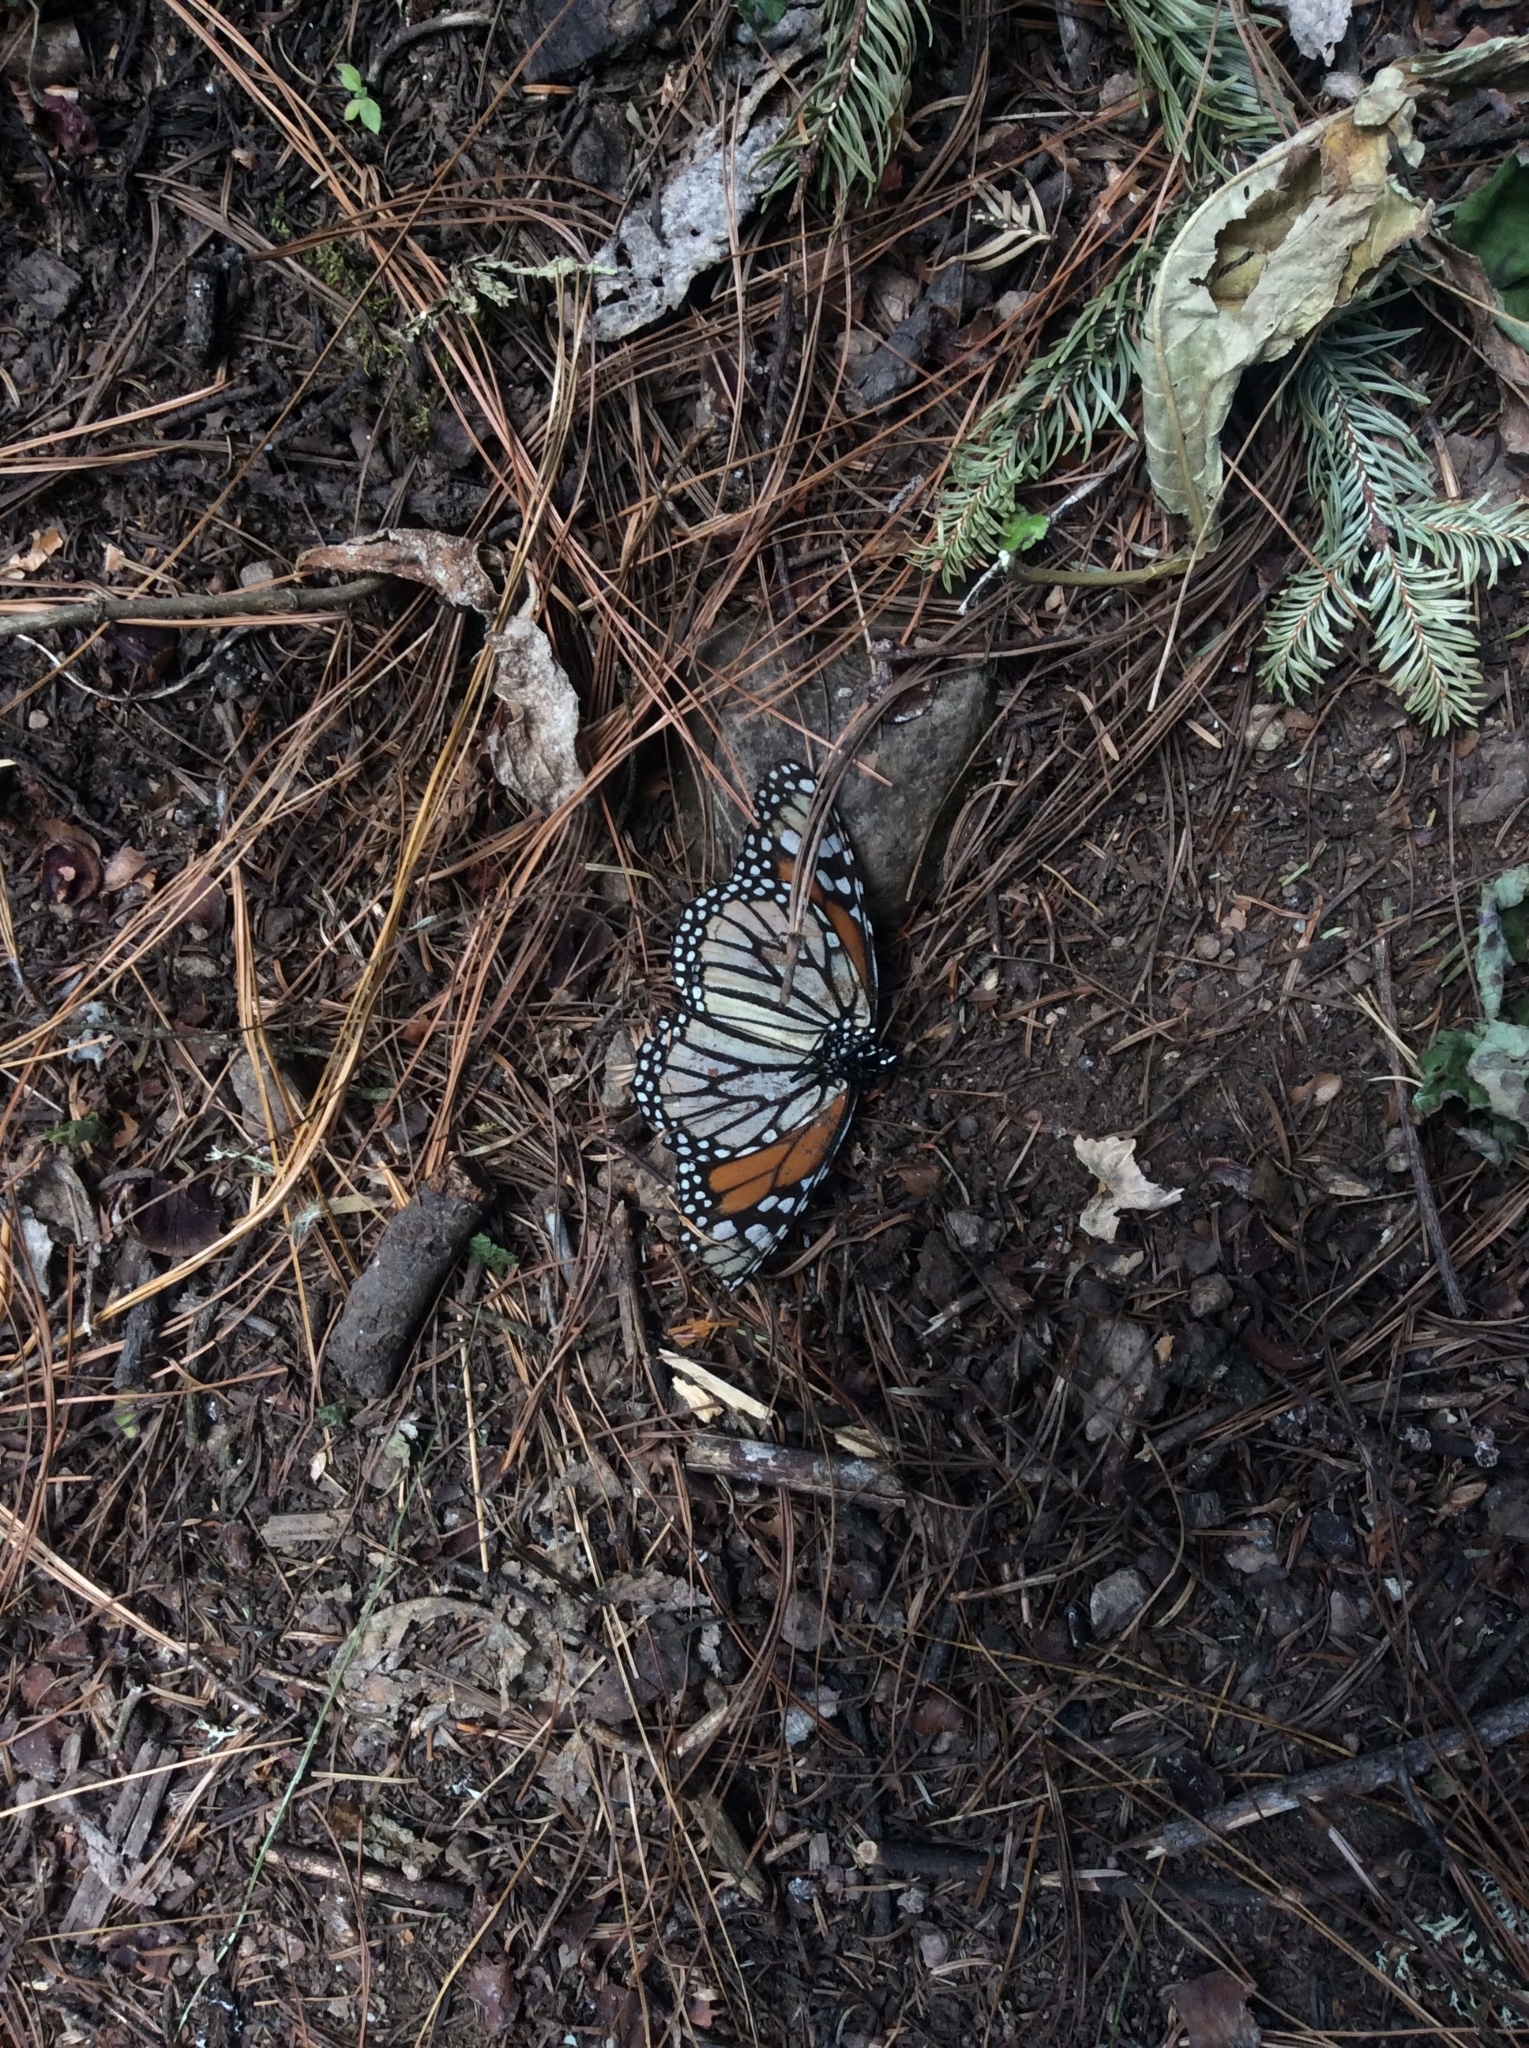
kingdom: Animalia
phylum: Arthropoda
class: Insecta
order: Lepidoptera
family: Nymphalidae
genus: Danaus
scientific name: Danaus plexippus
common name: Monarch
